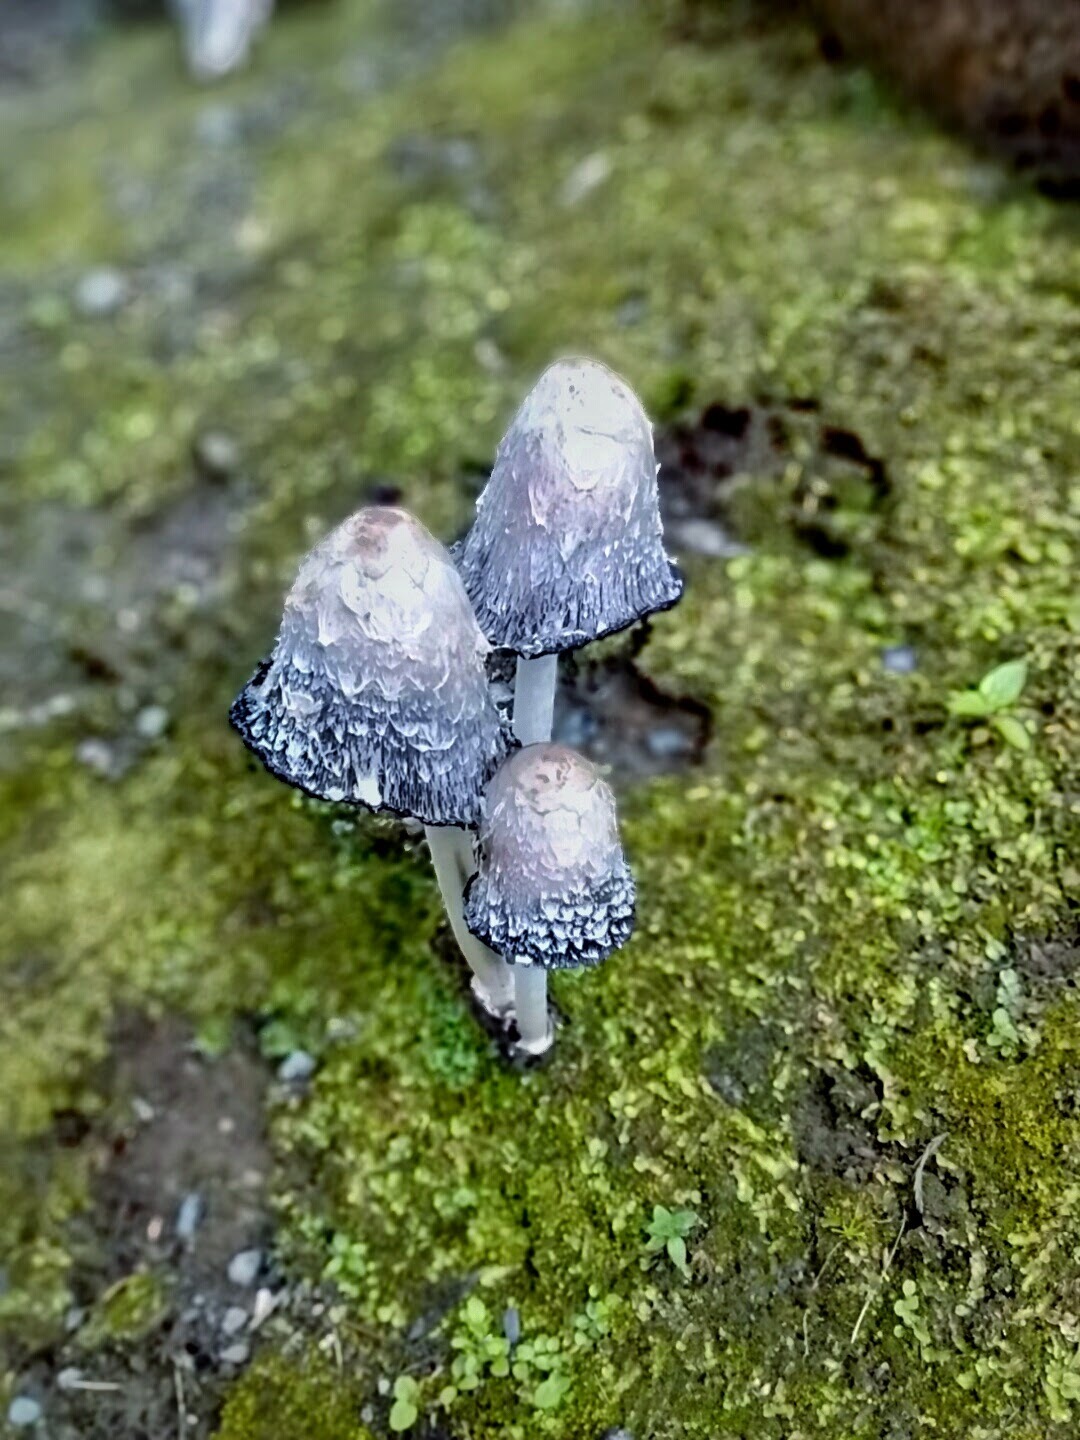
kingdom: Fungi
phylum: Basidiomycota
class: Agaricomycetes
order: Agaricales
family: Agaricaceae
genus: Coprinus
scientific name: Coprinus comatus
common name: Lawyer's wig
